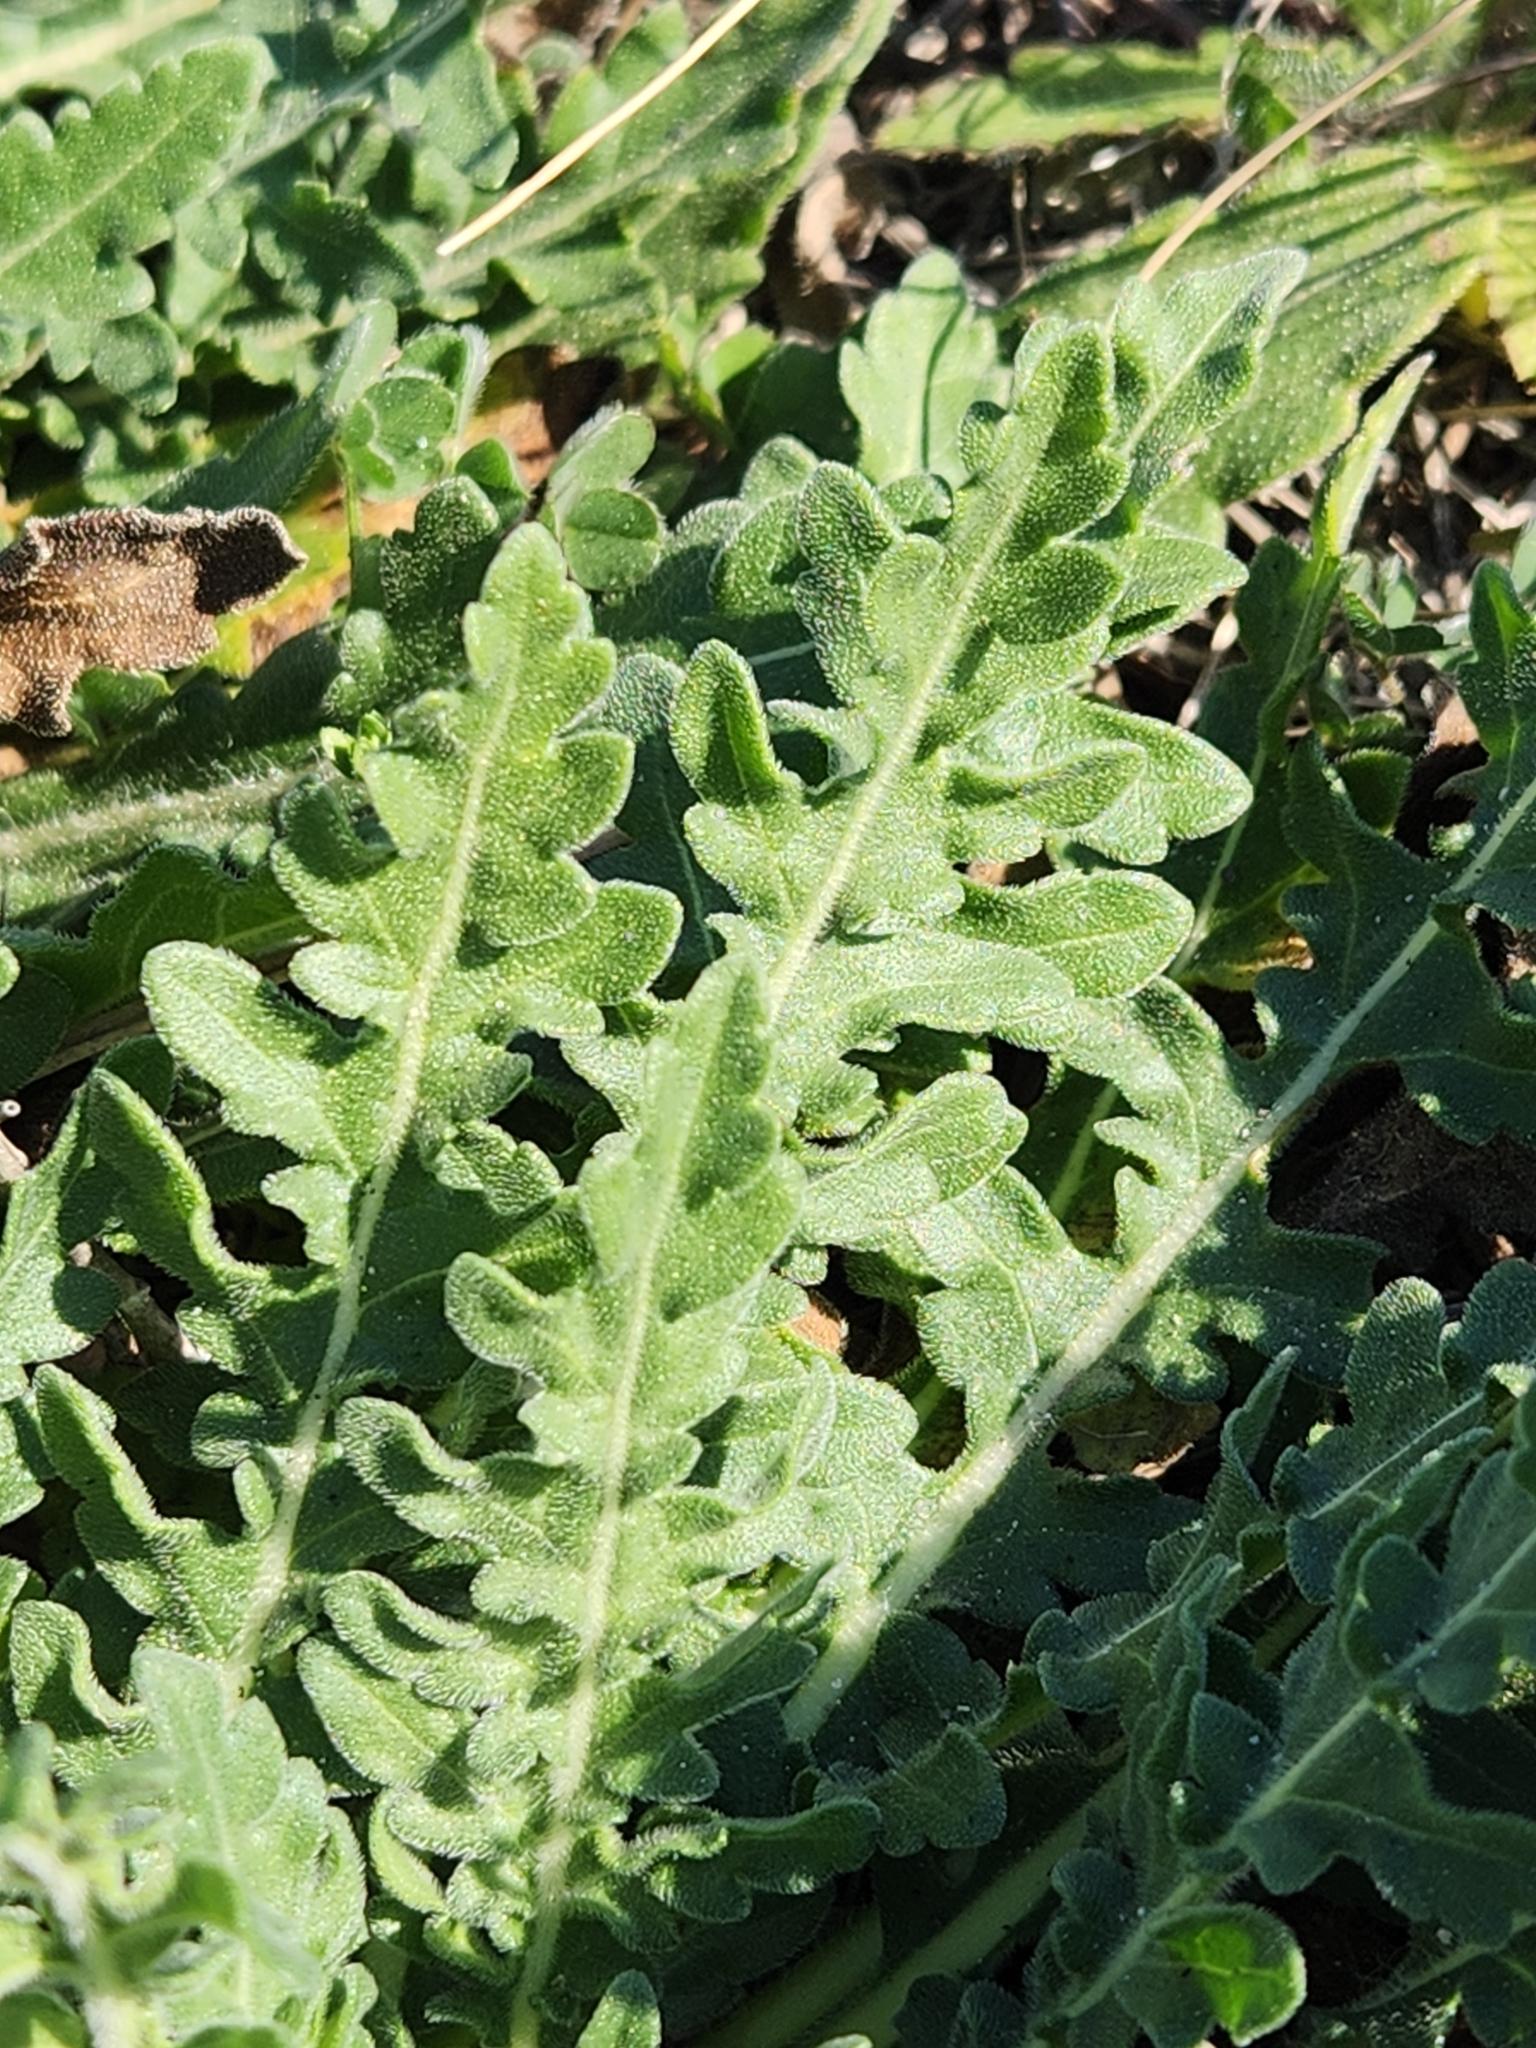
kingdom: Plantae
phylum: Tracheophyta
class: Magnoliopsida
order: Asterales
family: Asteraceae
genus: Engelmannia
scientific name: Engelmannia peristenia
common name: Engelmann's daisy
